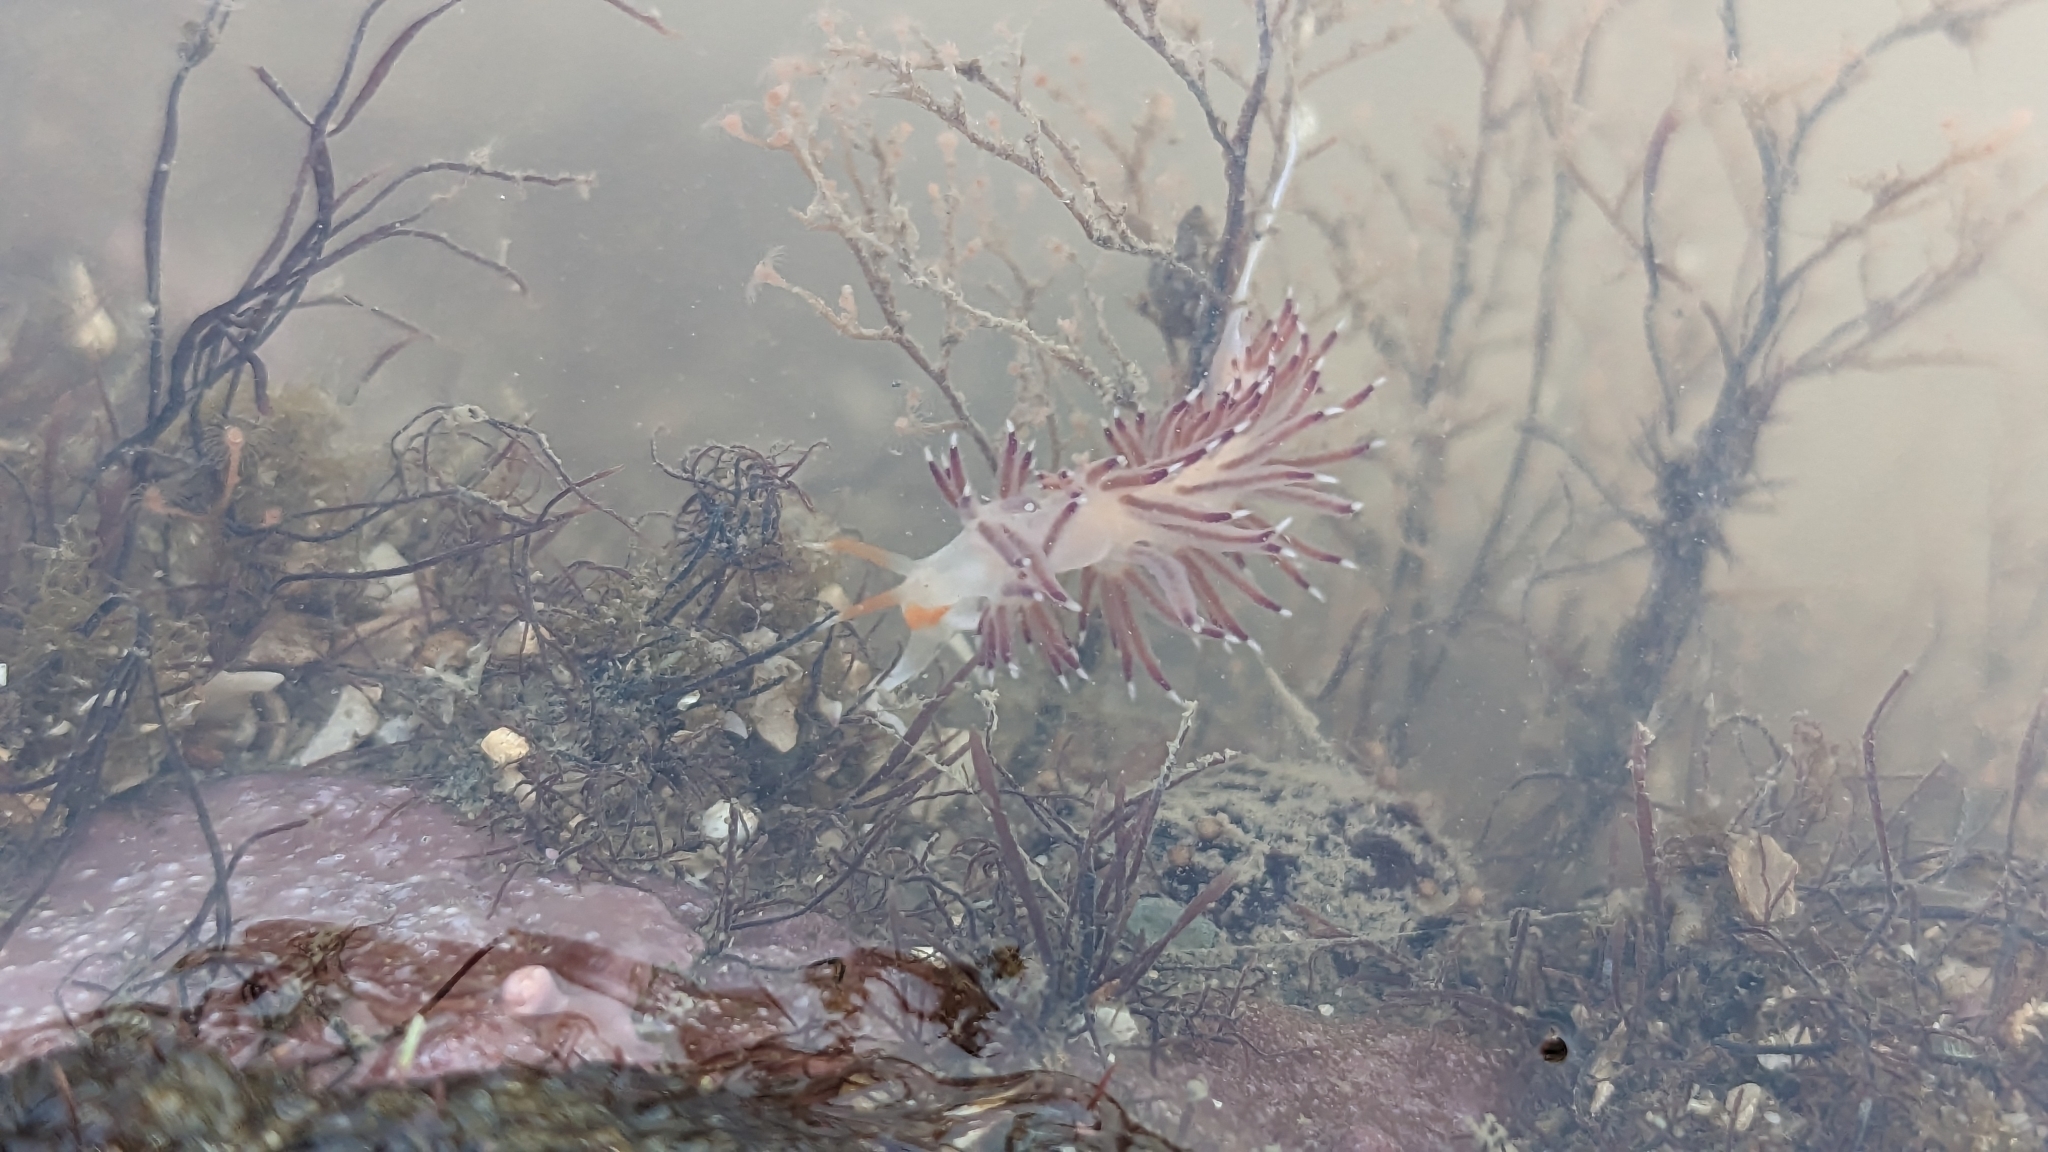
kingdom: Animalia
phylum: Mollusca
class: Gastropoda
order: Nudibranchia
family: Facelinidae
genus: Cratena
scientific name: Cratena pawarshindeorum
